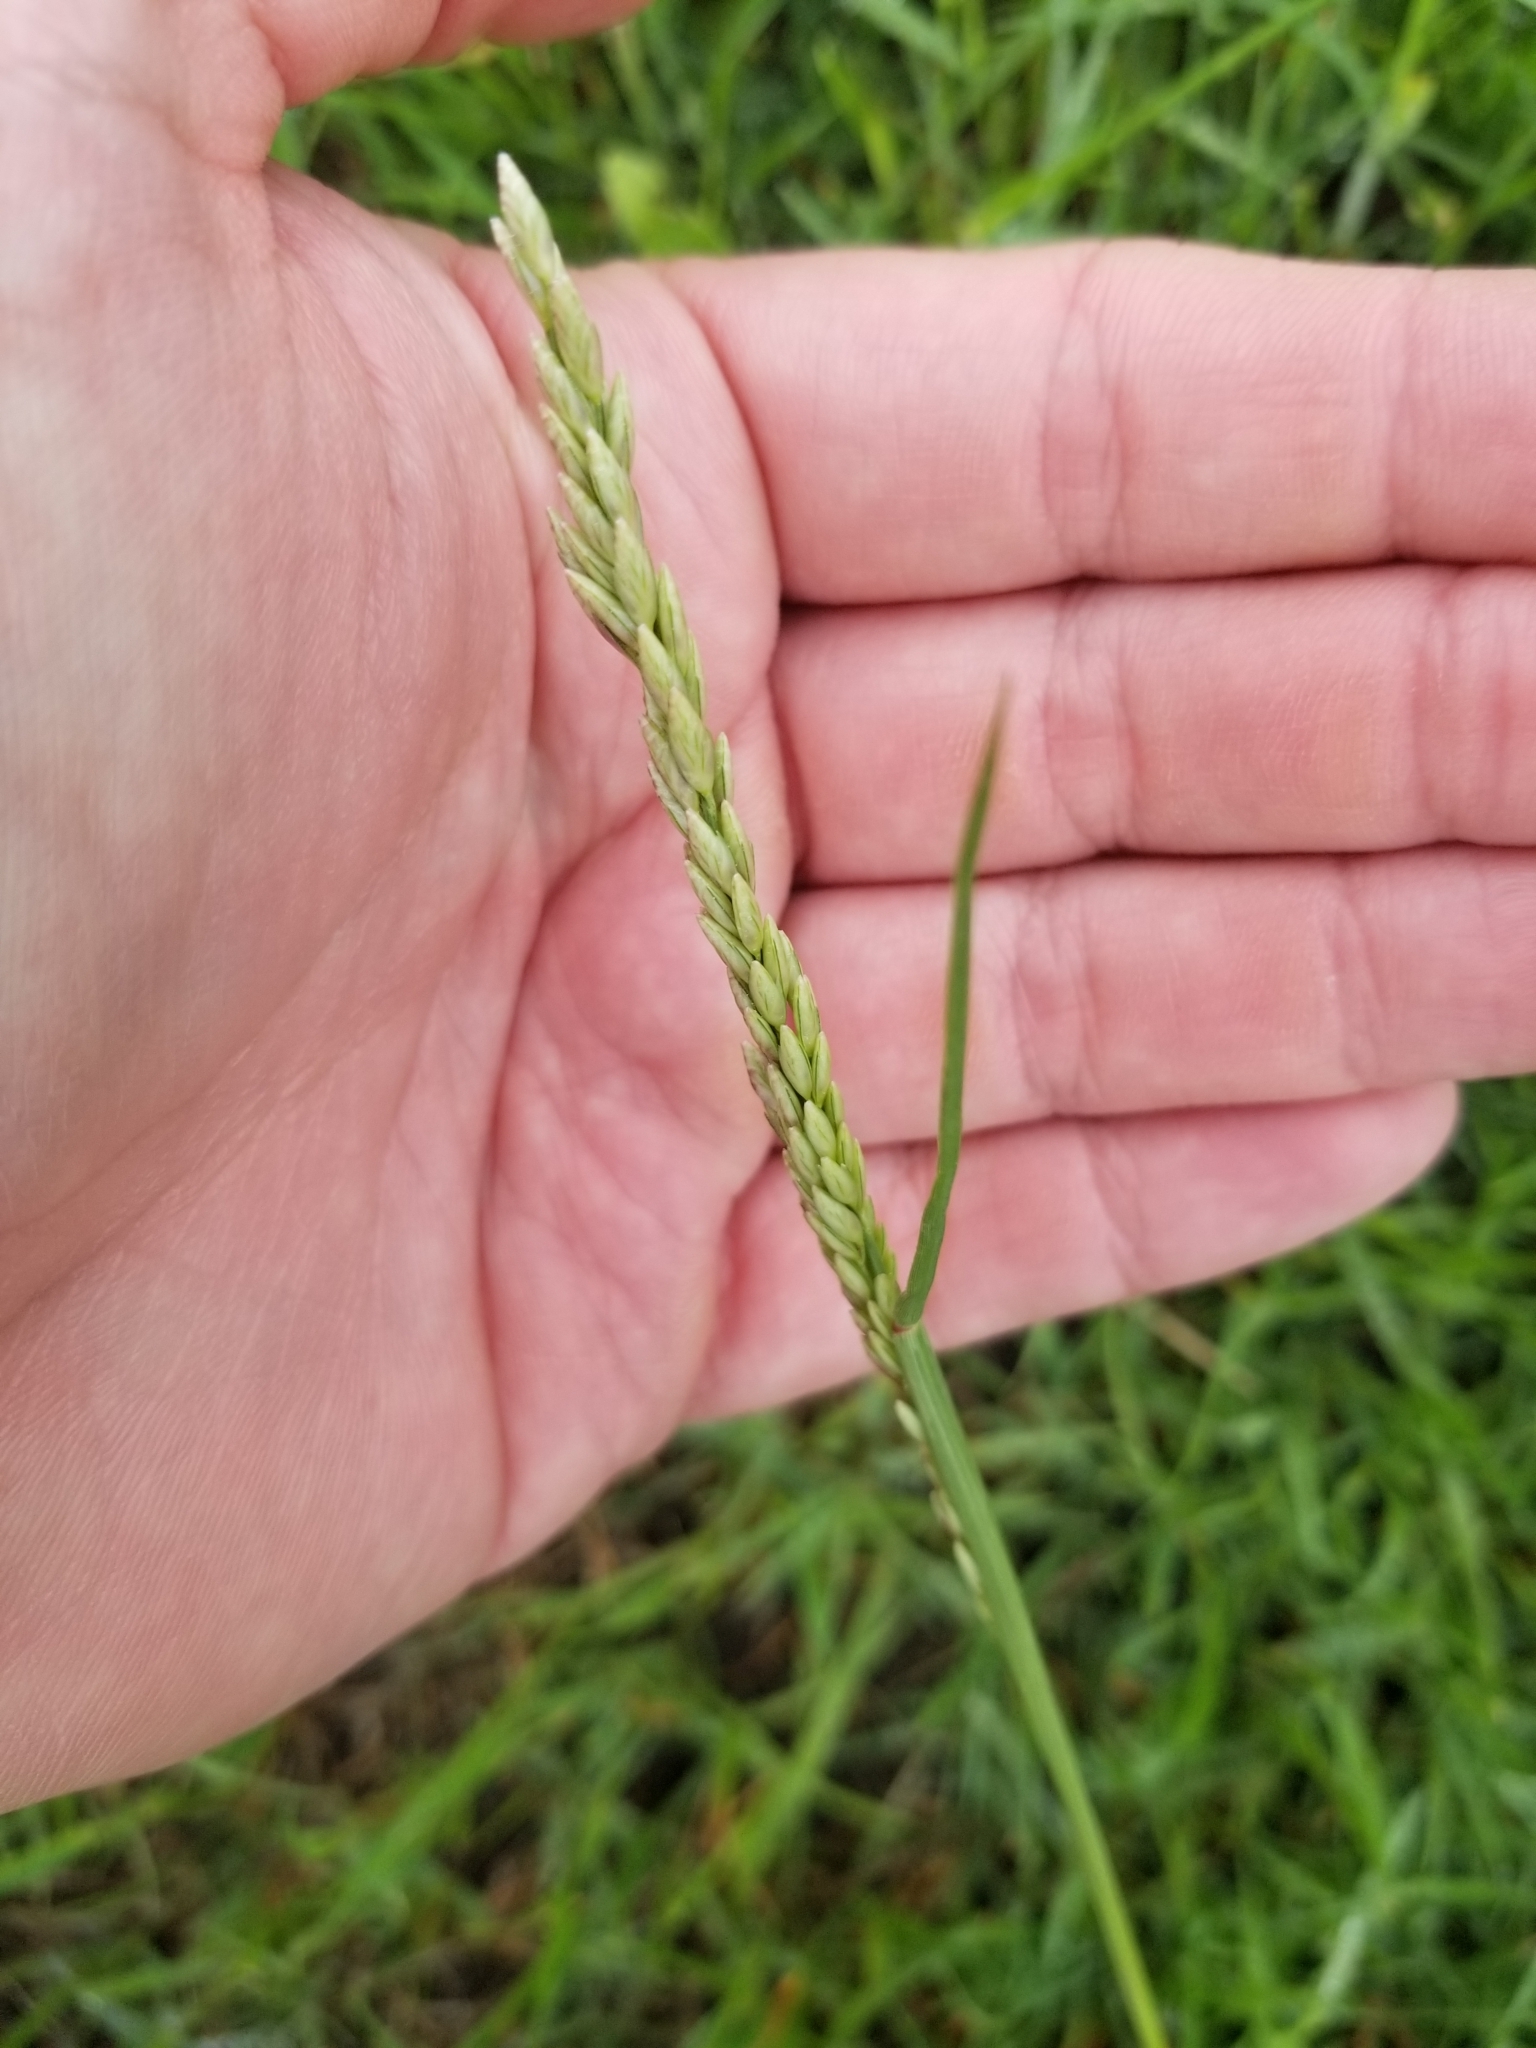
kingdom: Plantae
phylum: Tracheophyta
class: Liliopsida
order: Poales
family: Poaceae
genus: Tridens
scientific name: Tridens albescens
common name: White tridens
